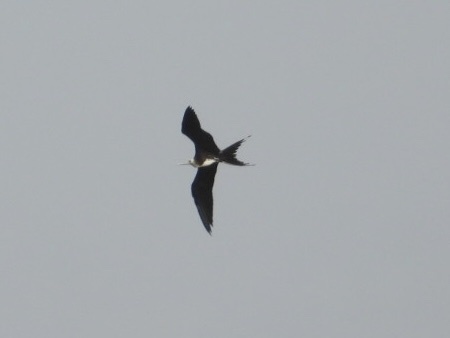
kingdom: Animalia
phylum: Chordata
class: Aves
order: Suliformes
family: Fregatidae
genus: Fregata
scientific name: Fregata magnificens
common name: Magnificent frigatebird
